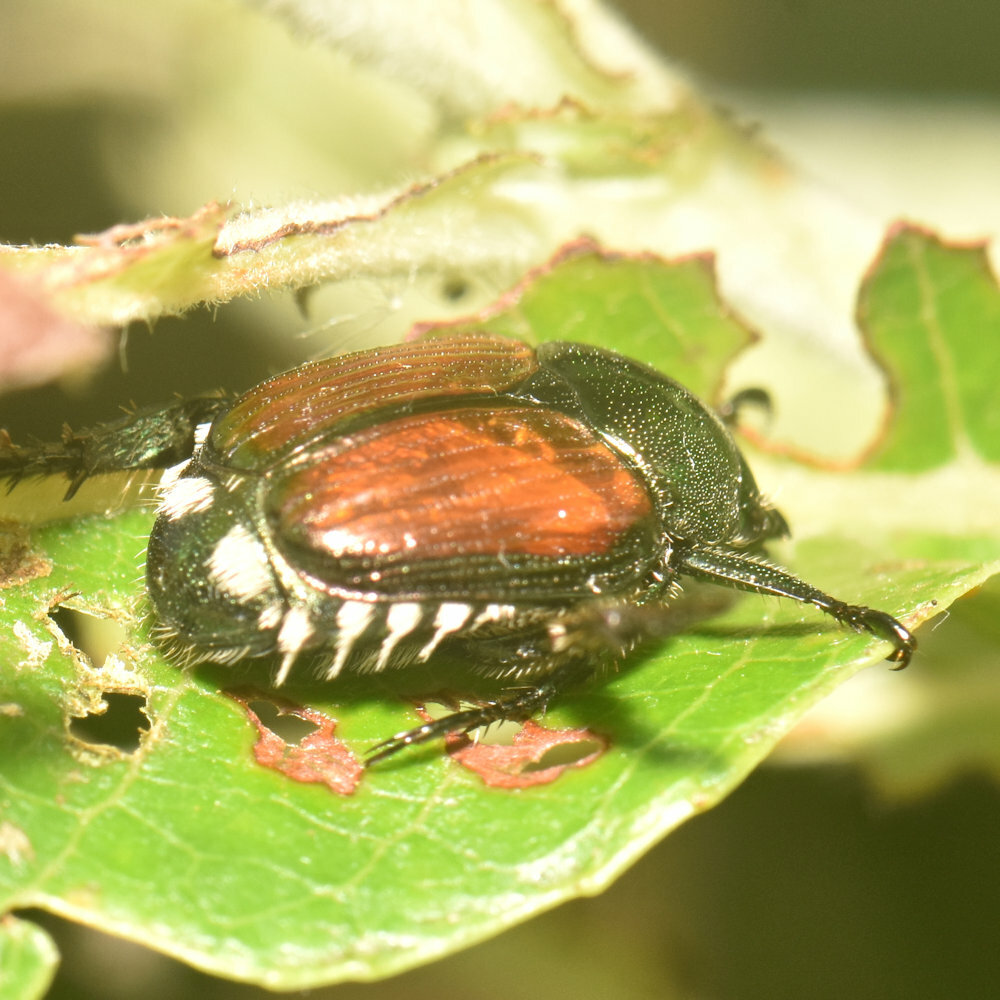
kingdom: Animalia
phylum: Arthropoda
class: Insecta
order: Coleoptera
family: Scarabaeidae
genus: Popillia
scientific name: Popillia japonica
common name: Japanese beetle
